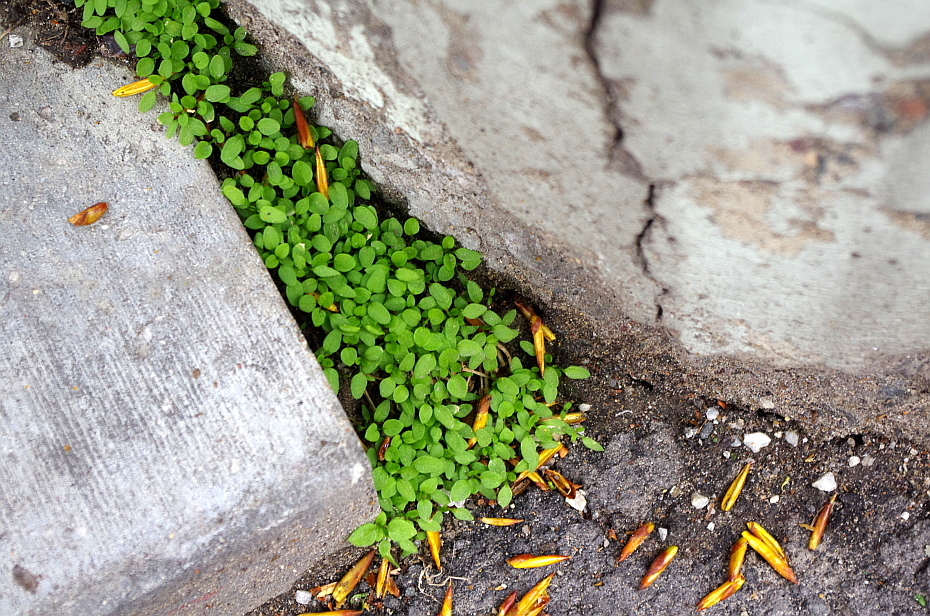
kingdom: Plantae
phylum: Tracheophyta
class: Magnoliopsida
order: Caryophyllales
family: Caryophyllaceae
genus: Stellaria
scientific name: Stellaria media
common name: Common chickweed
